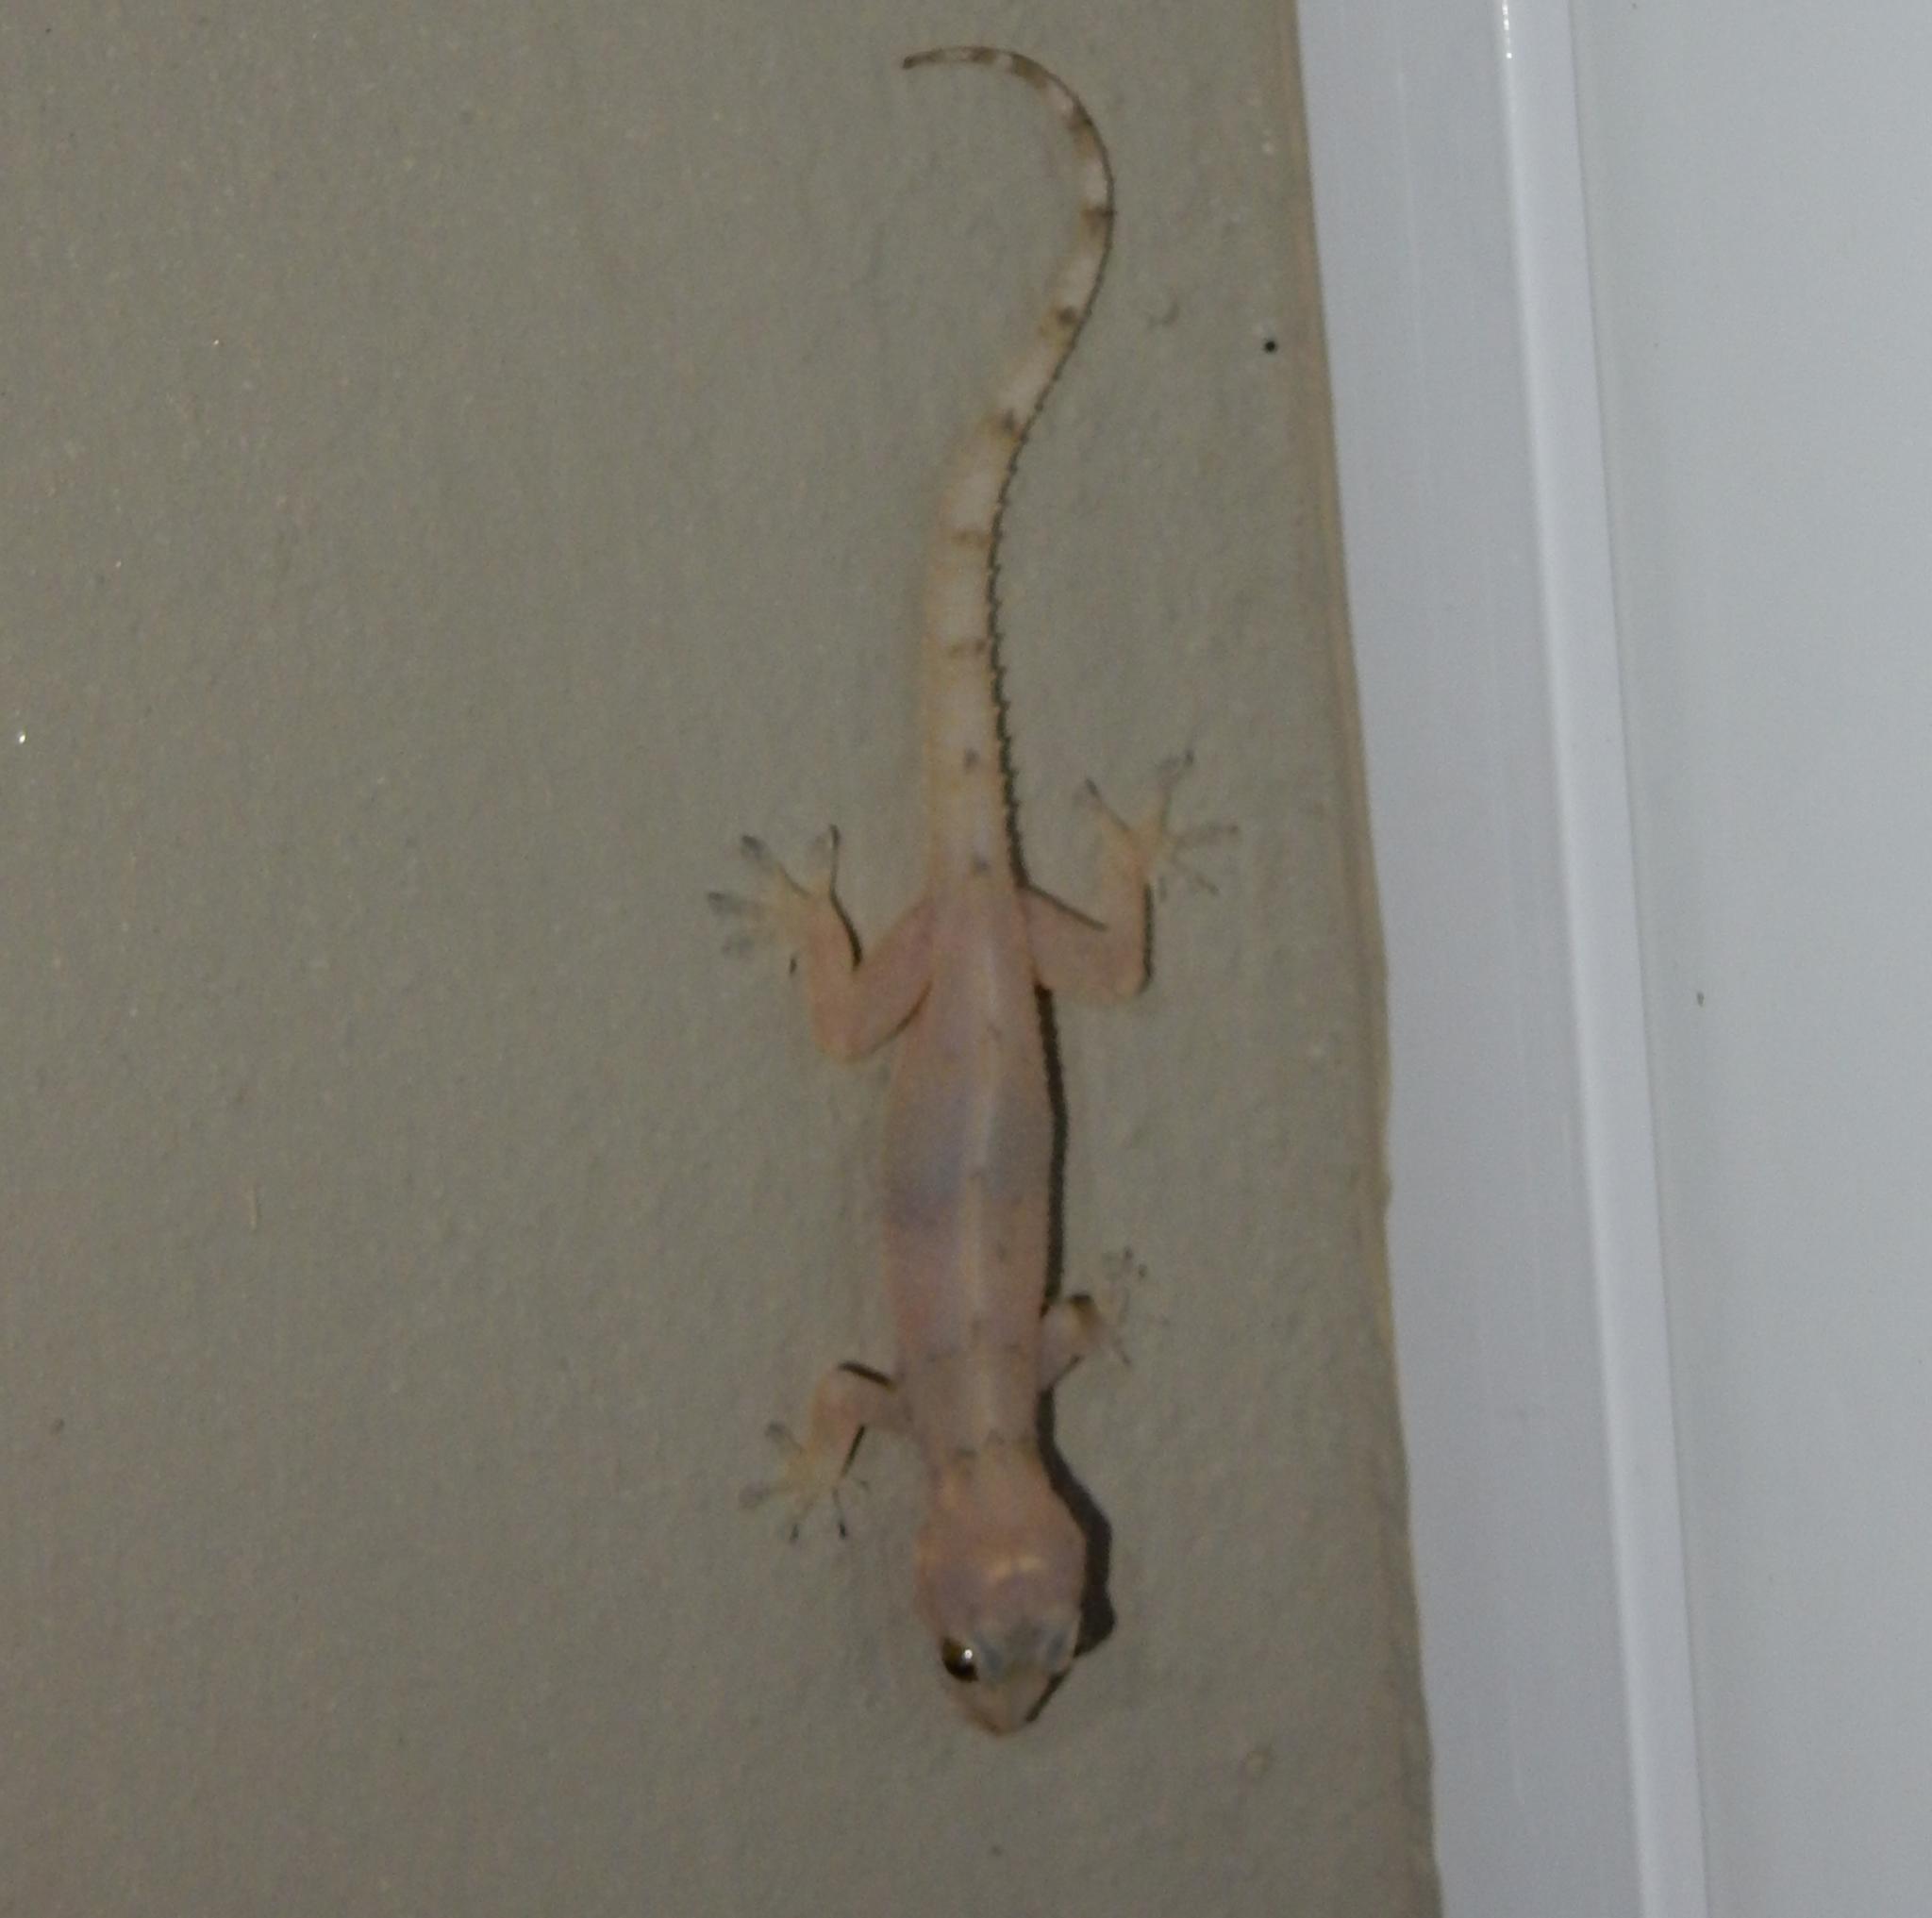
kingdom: Animalia
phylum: Chordata
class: Squamata
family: Gekkonidae
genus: Hemidactylus
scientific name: Hemidactylus mabouia
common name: House gecko
